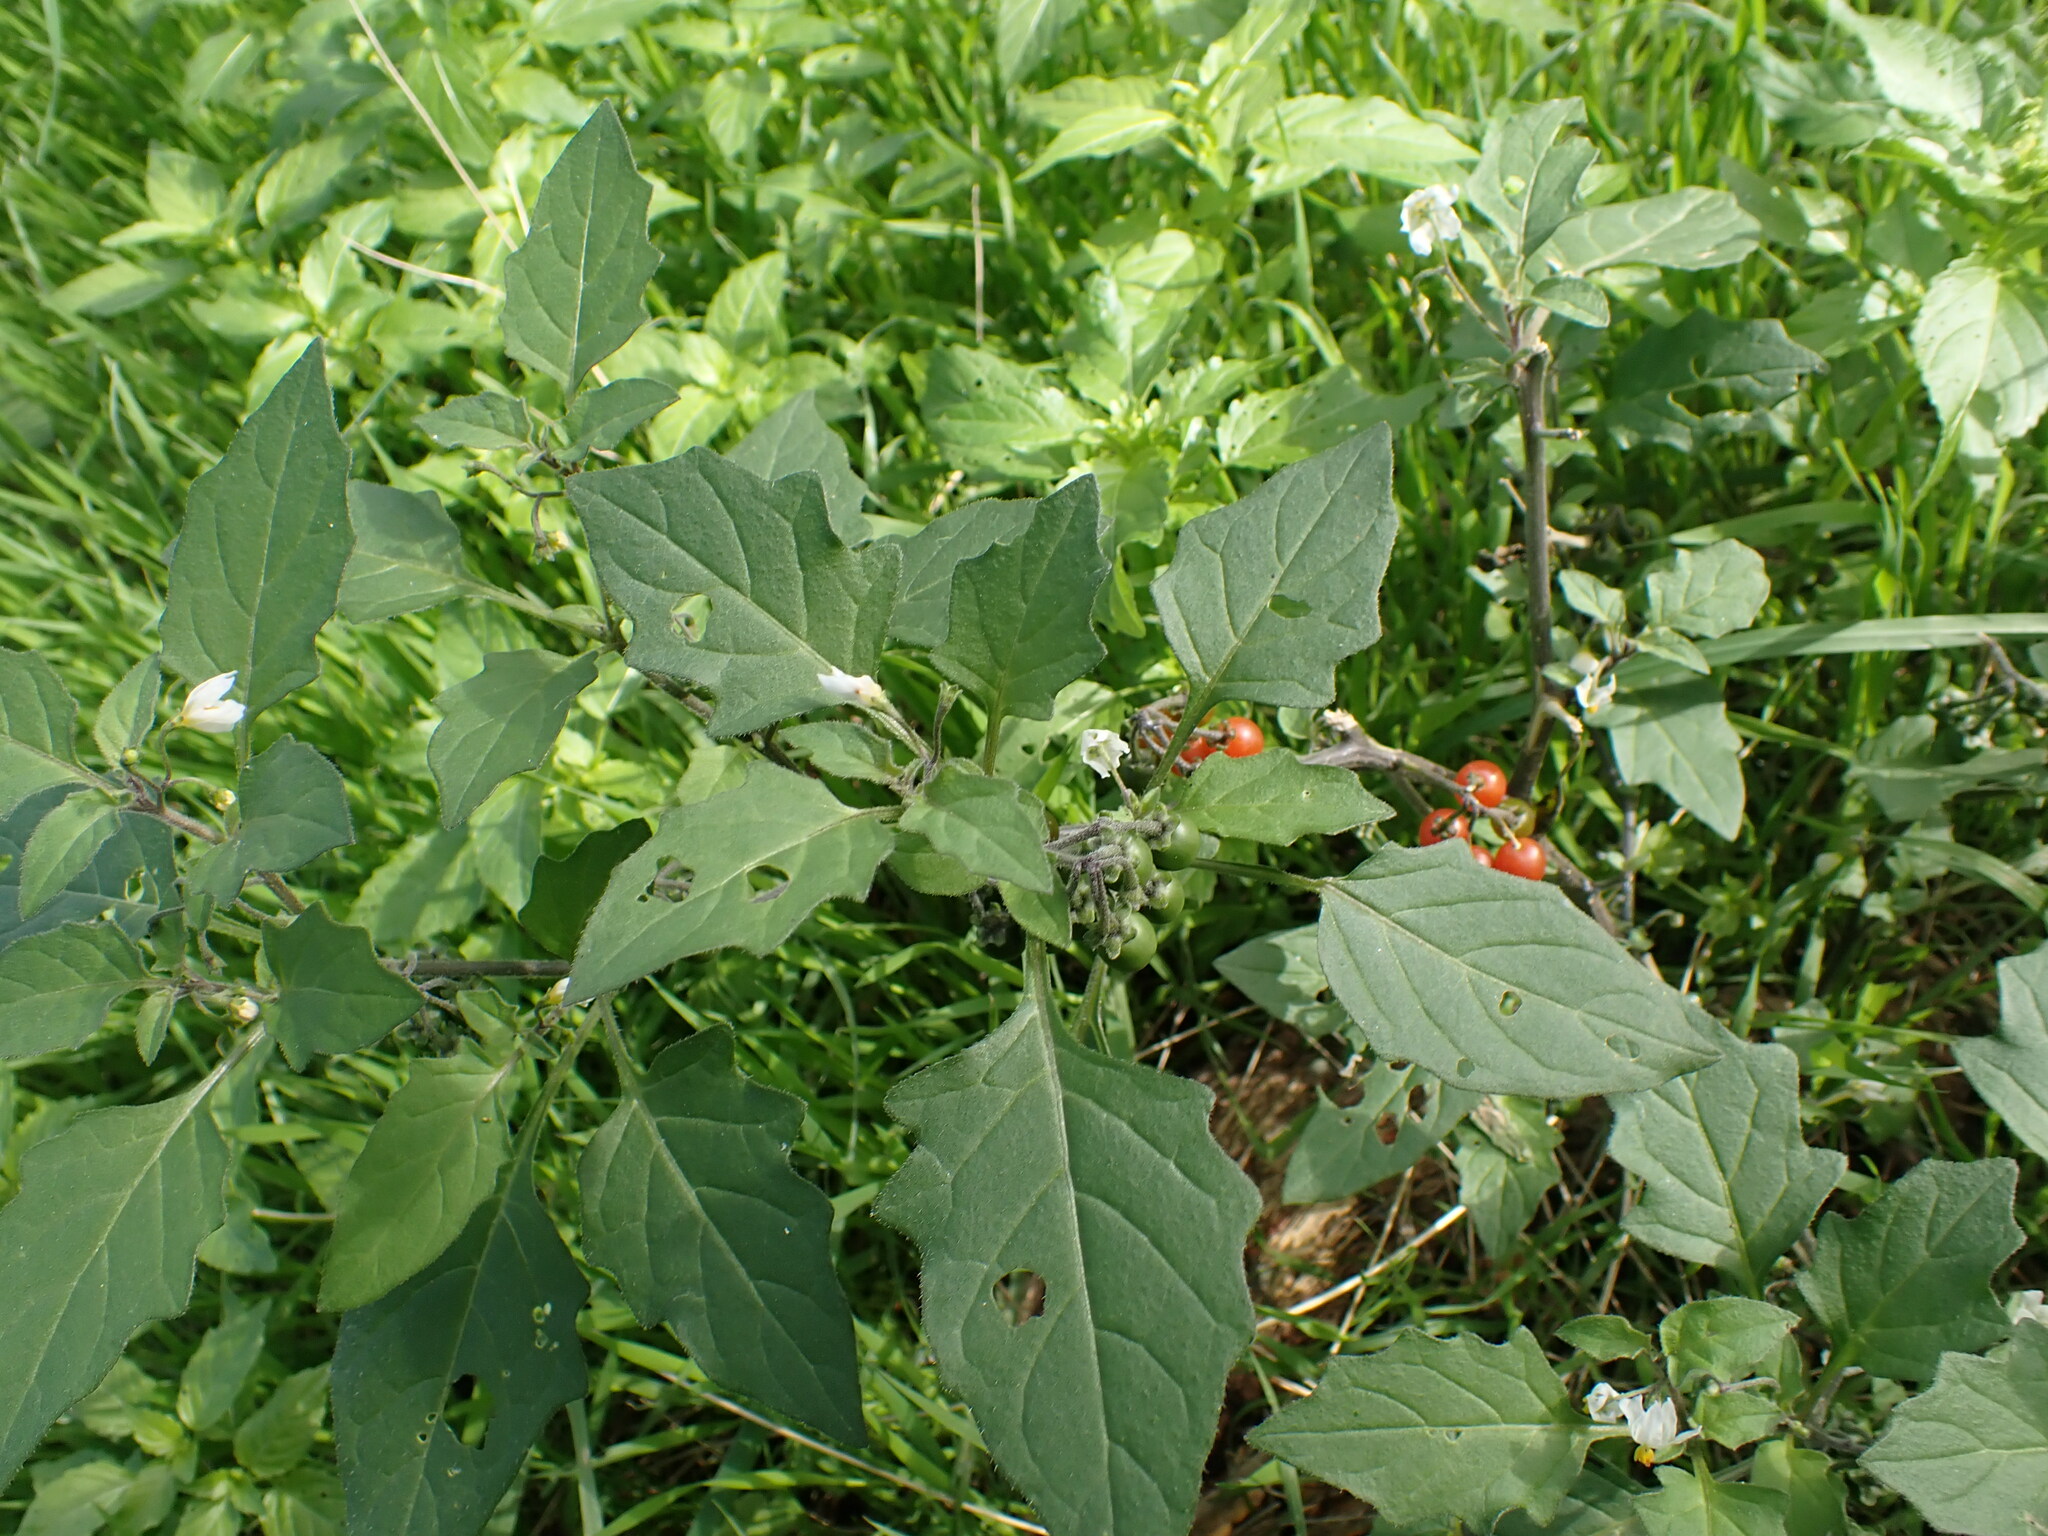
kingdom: Plantae
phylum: Tracheophyta
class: Magnoliopsida
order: Solanales
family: Solanaceae
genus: Solanum
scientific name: Solanum villosum
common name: Red nightshade
